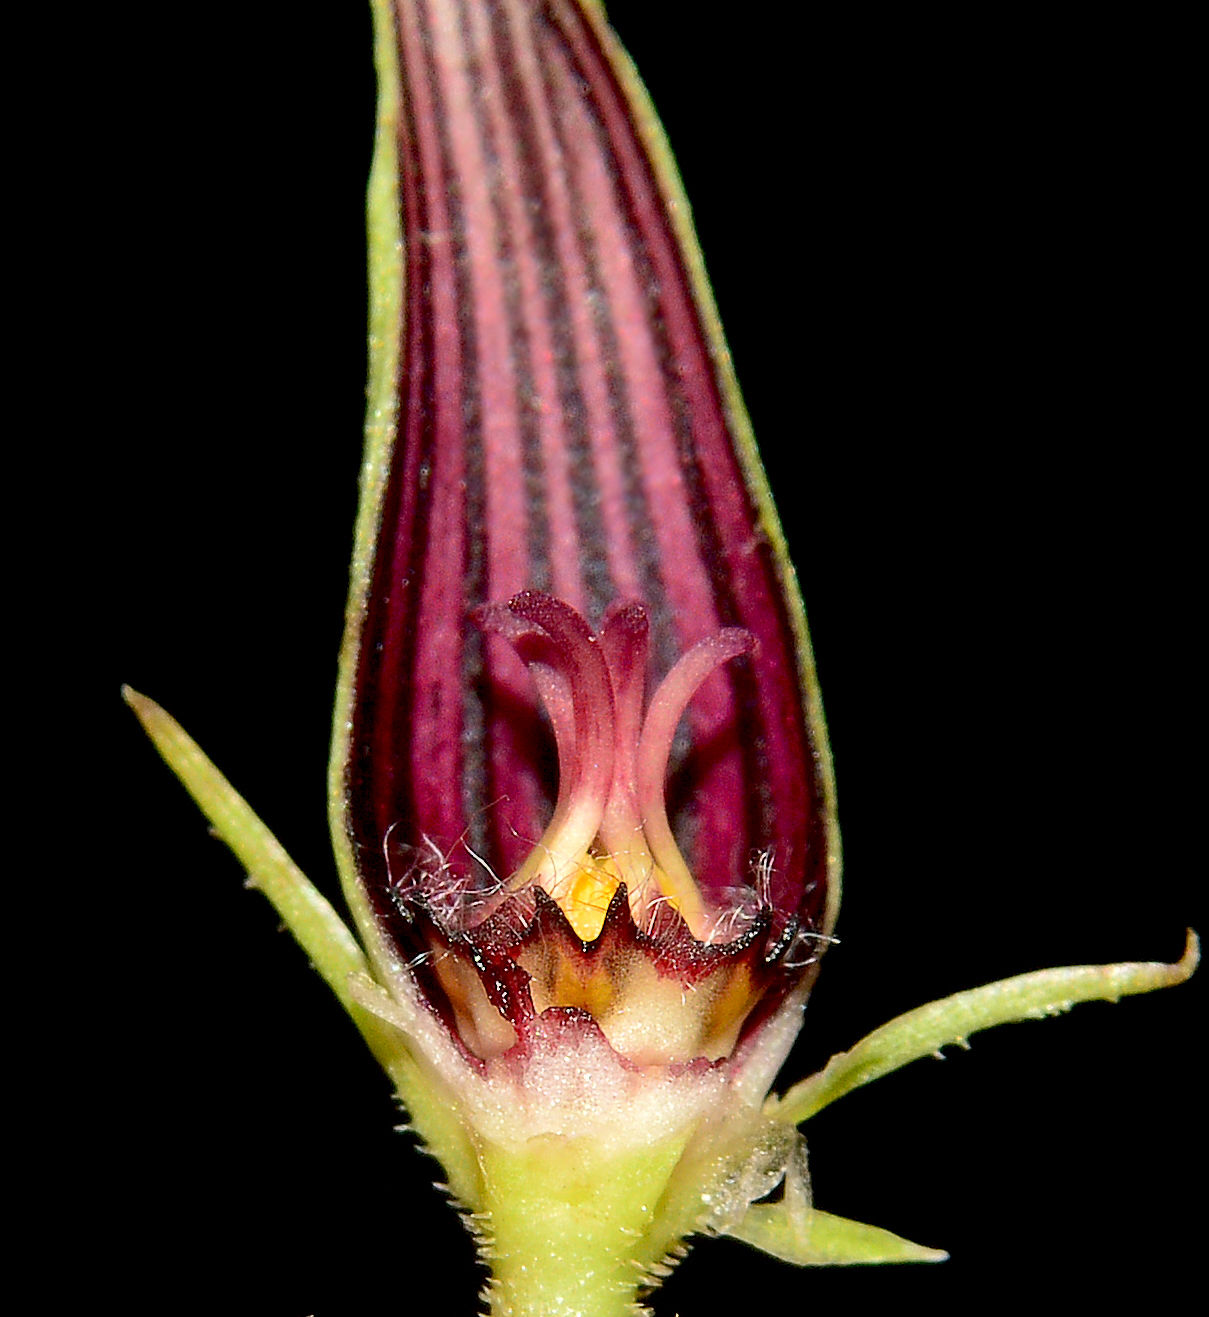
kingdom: Plantae
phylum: Tracheophyta
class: Magnoliopsida
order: Gentianales
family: Apocynaceae
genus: Ceropegia
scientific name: Ceropegia attenuata
